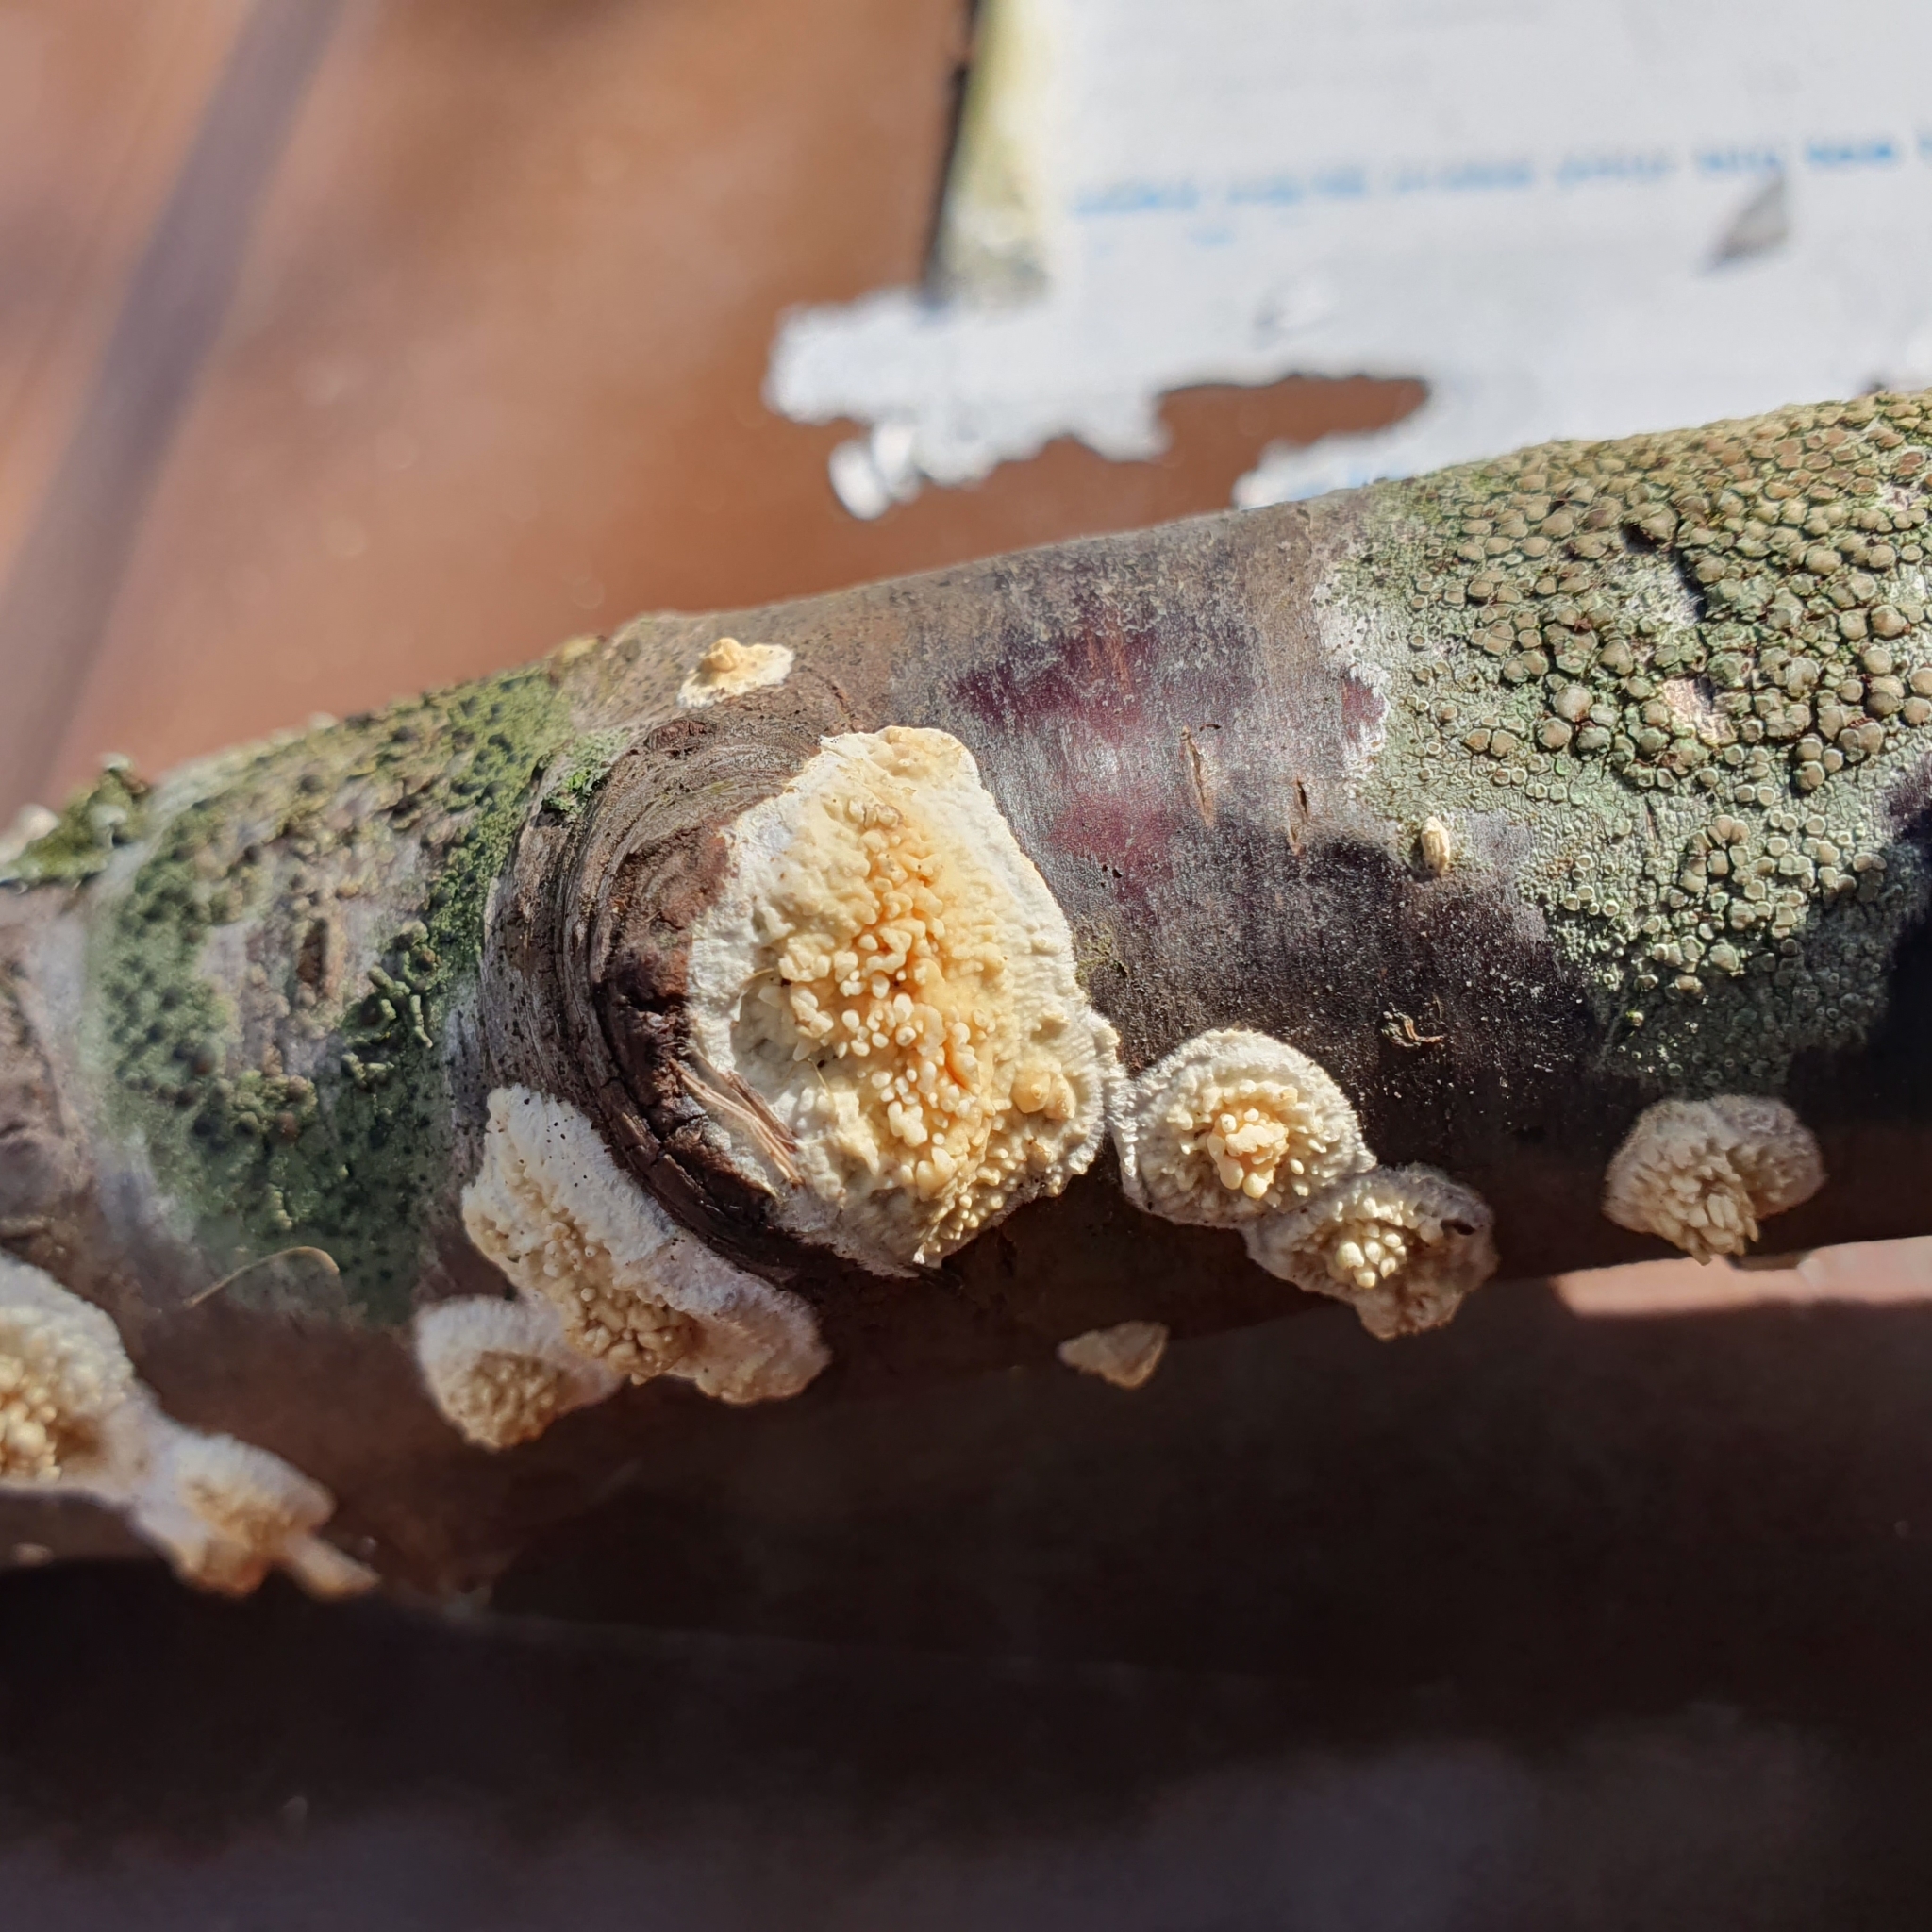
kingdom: Fungi
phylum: Basidiomycota
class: Agaricomycetes
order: Hymenochaetales
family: Schizoporaceae
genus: Xylodon
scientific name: Xylodon radula
